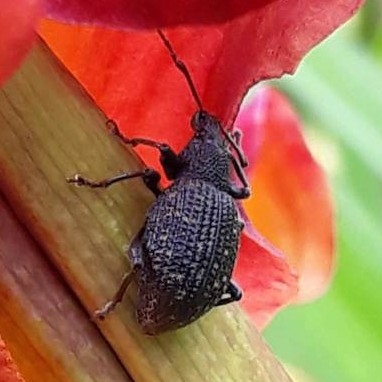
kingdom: Animalia
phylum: Arthropoda
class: Insecta
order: Coleoptera
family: Curculionidae
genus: Otiorhynchus
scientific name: Otiorhynchus sulcatus
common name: Black vine weevil
